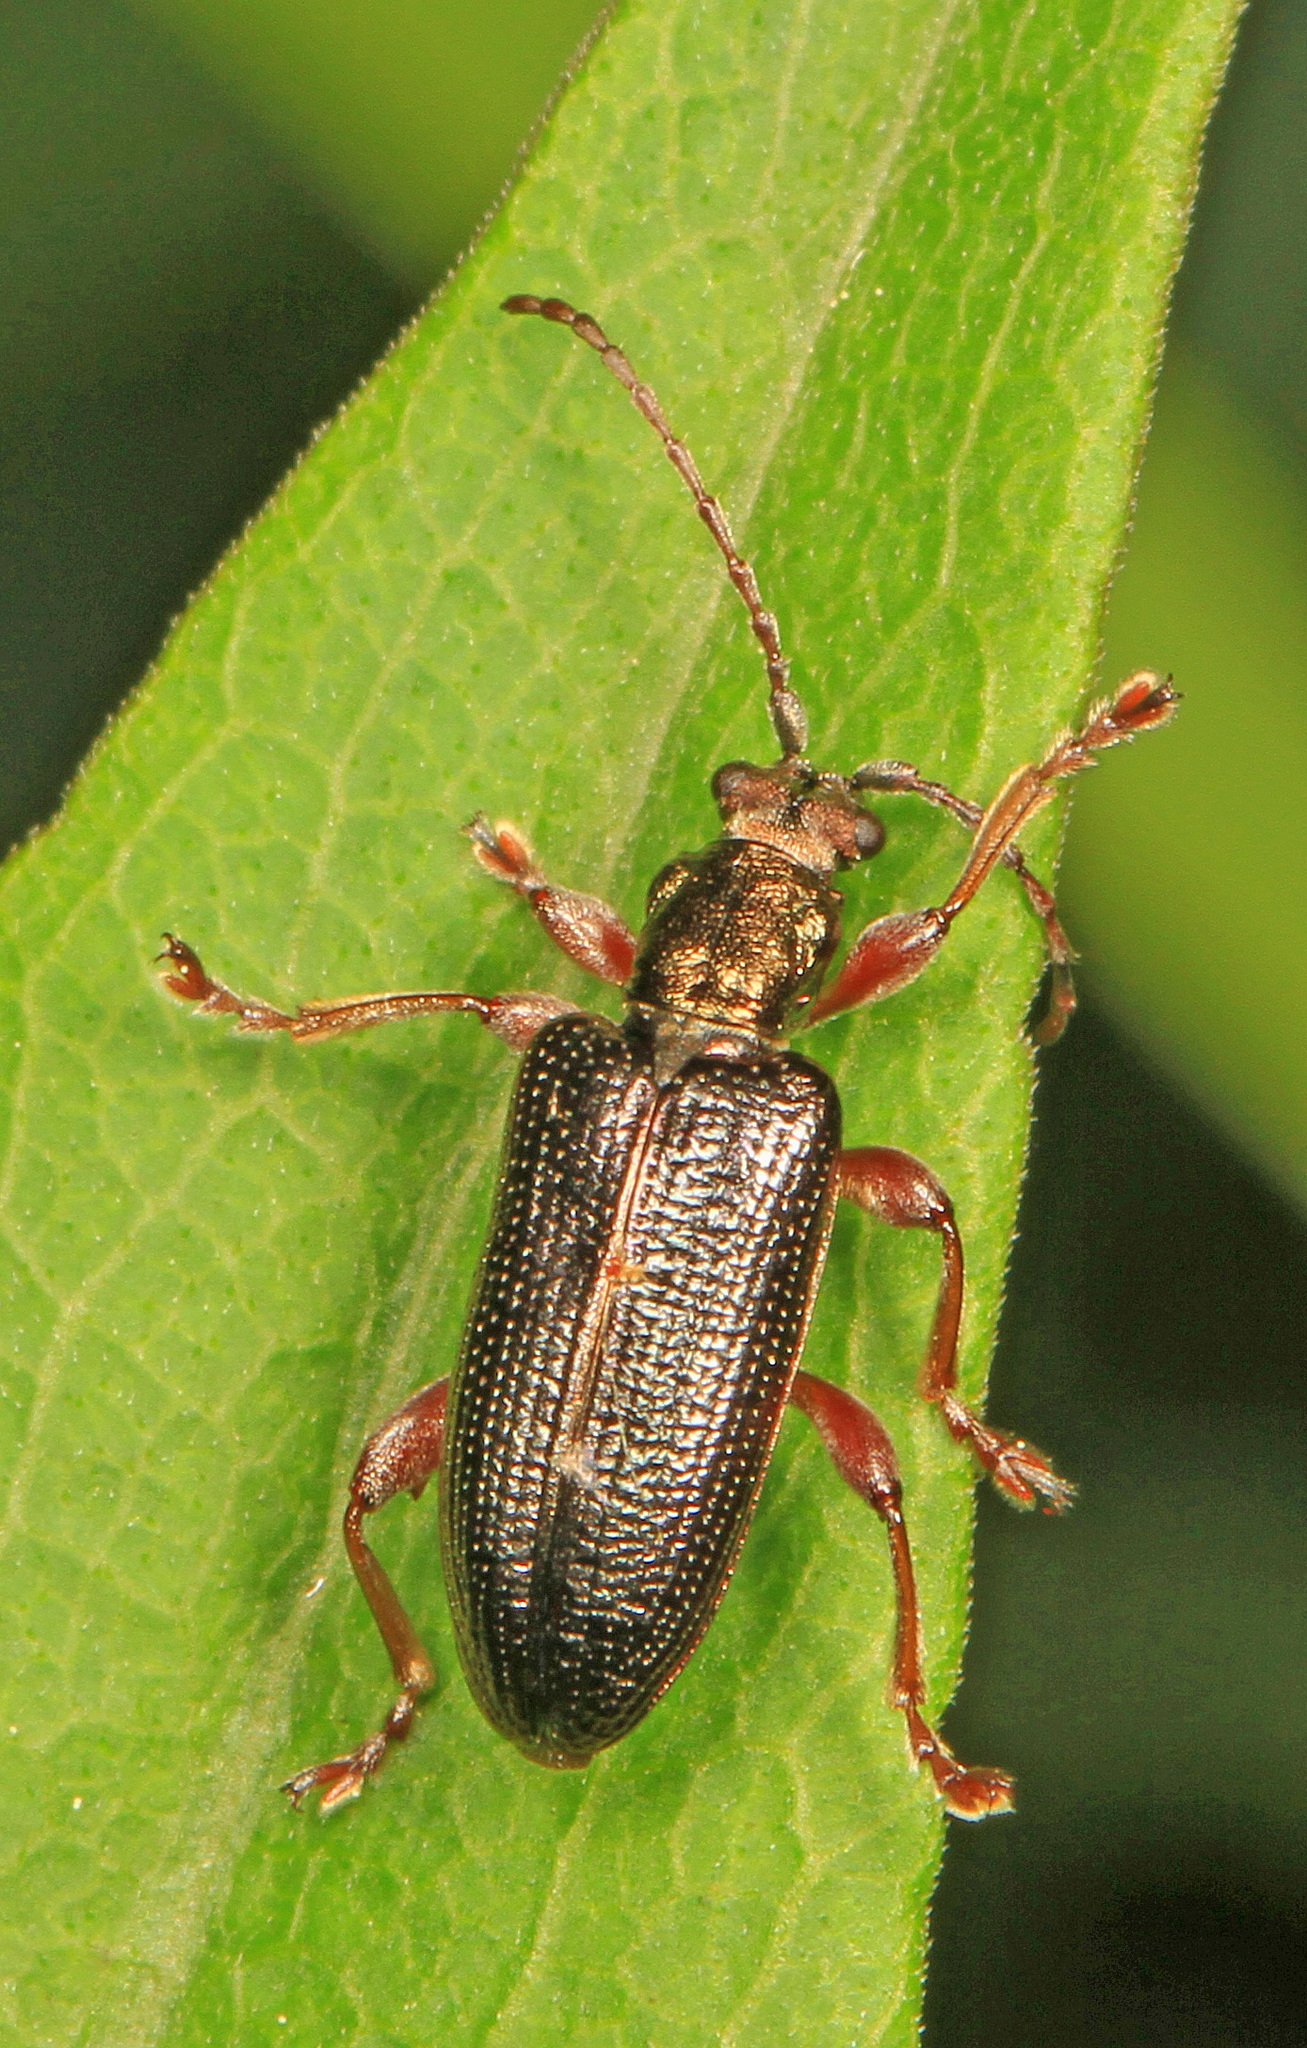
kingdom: Animalia
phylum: Arthropoda
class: Insecta
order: Coleoptera
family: Chrysomelidae
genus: Plateumaris
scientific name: Plateumaris shoemakeri
